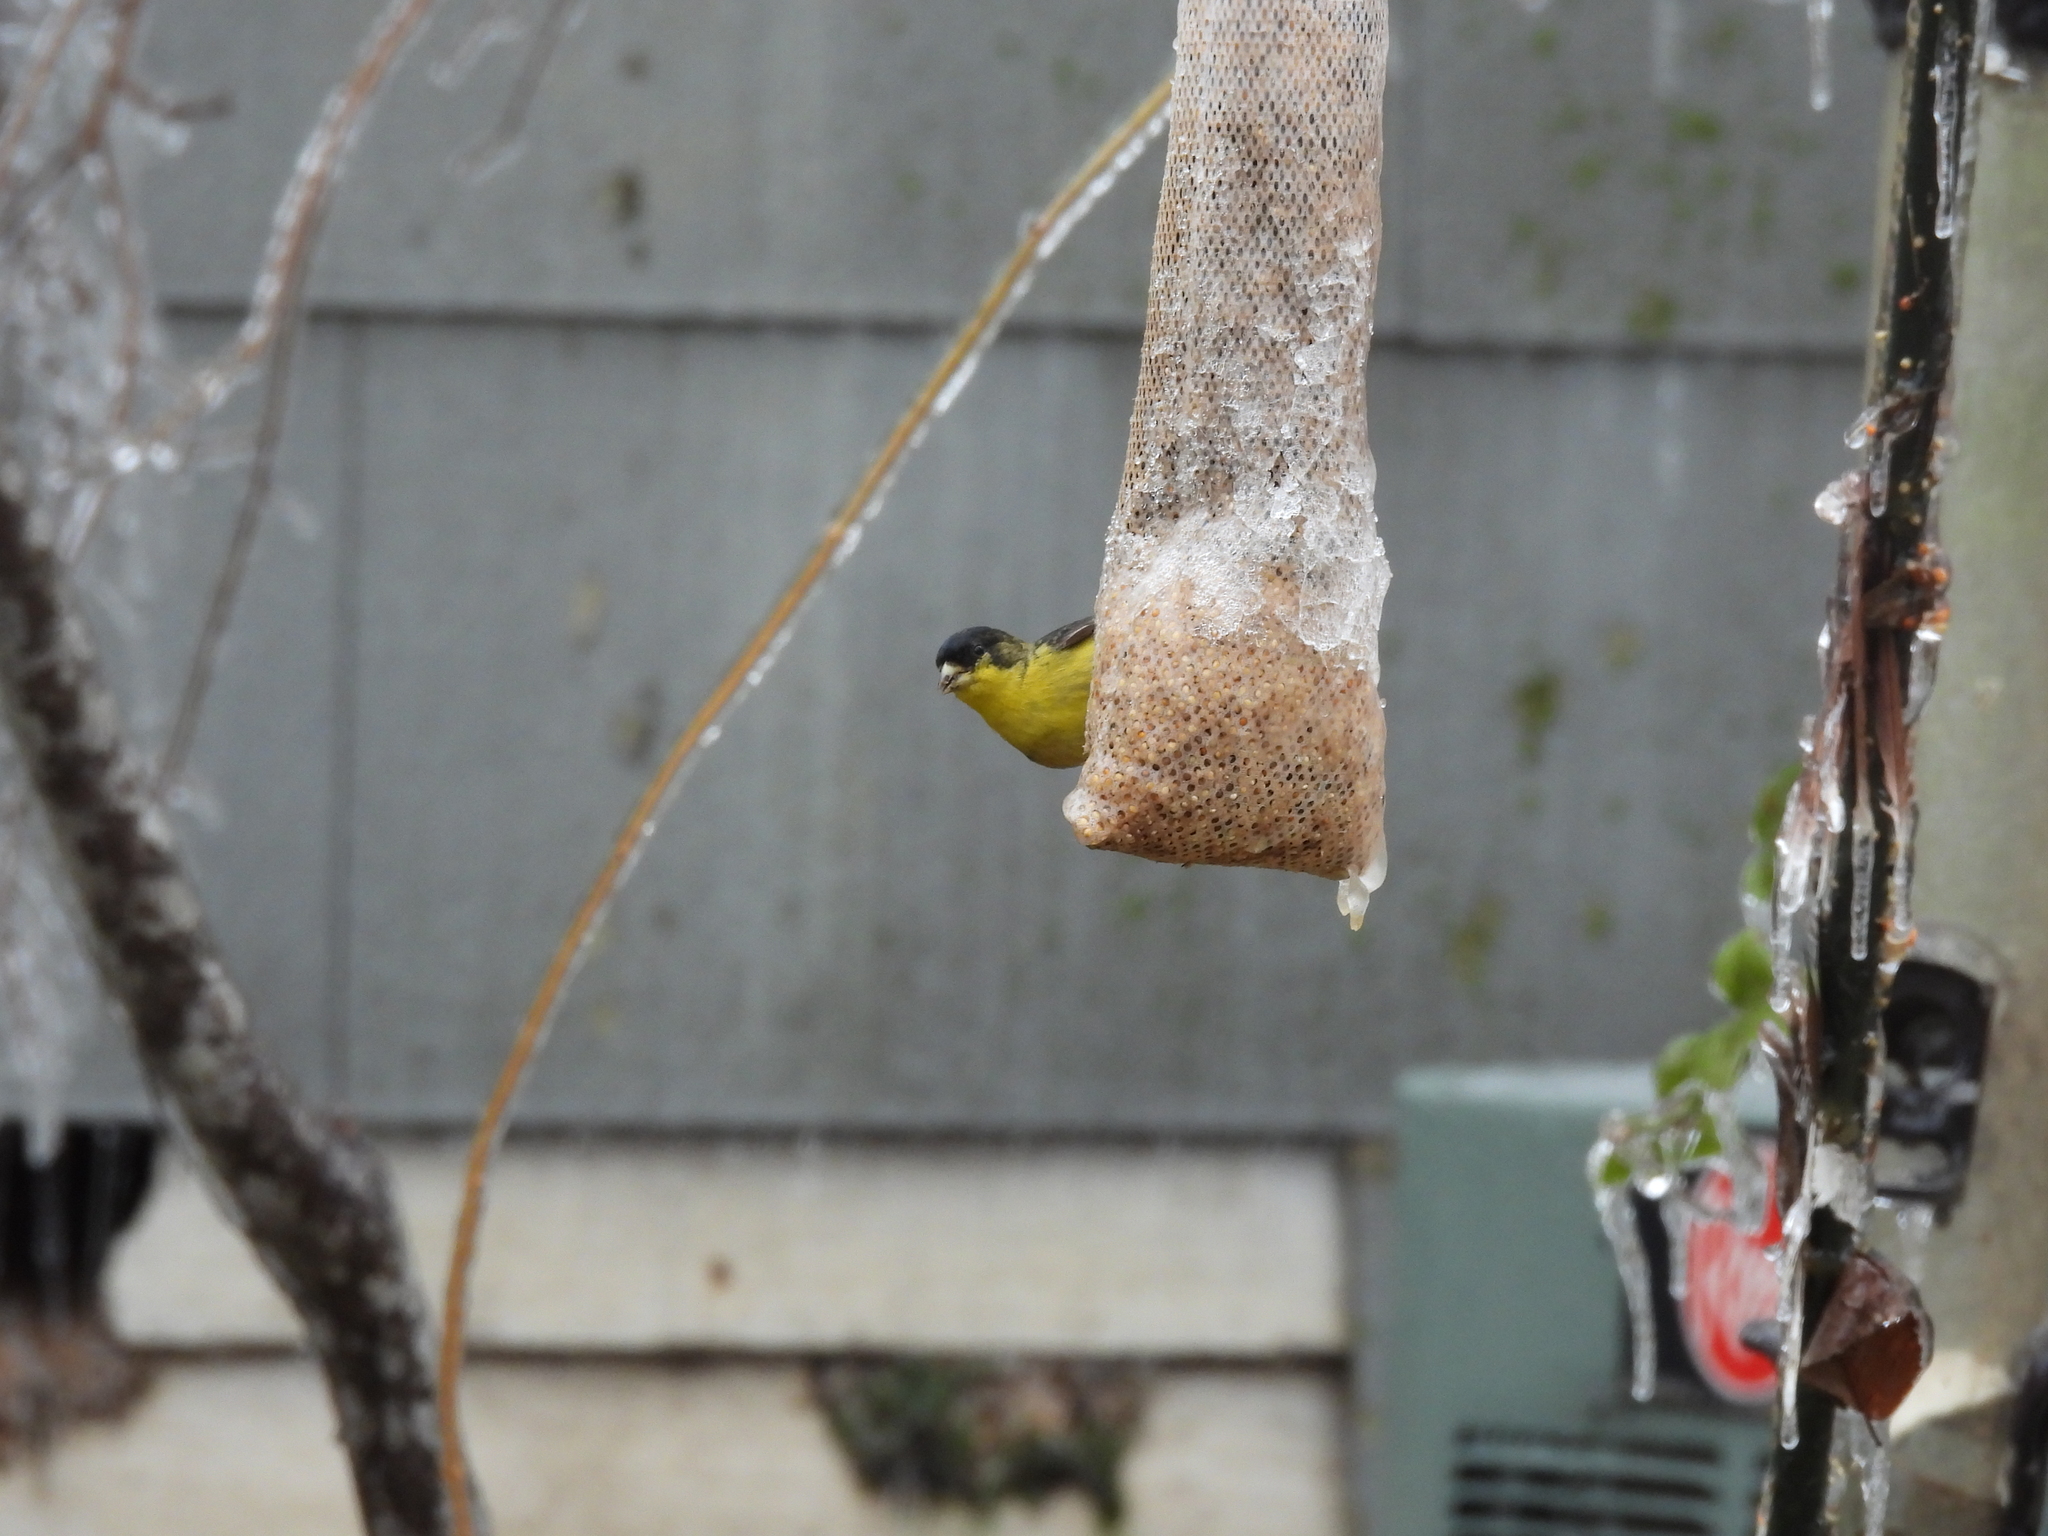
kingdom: Animalia
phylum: Chordata
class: Aves
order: Passeriformes
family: Fringillidae
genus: Spinus
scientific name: Spinus psaltria
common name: Lesser goldfinch
